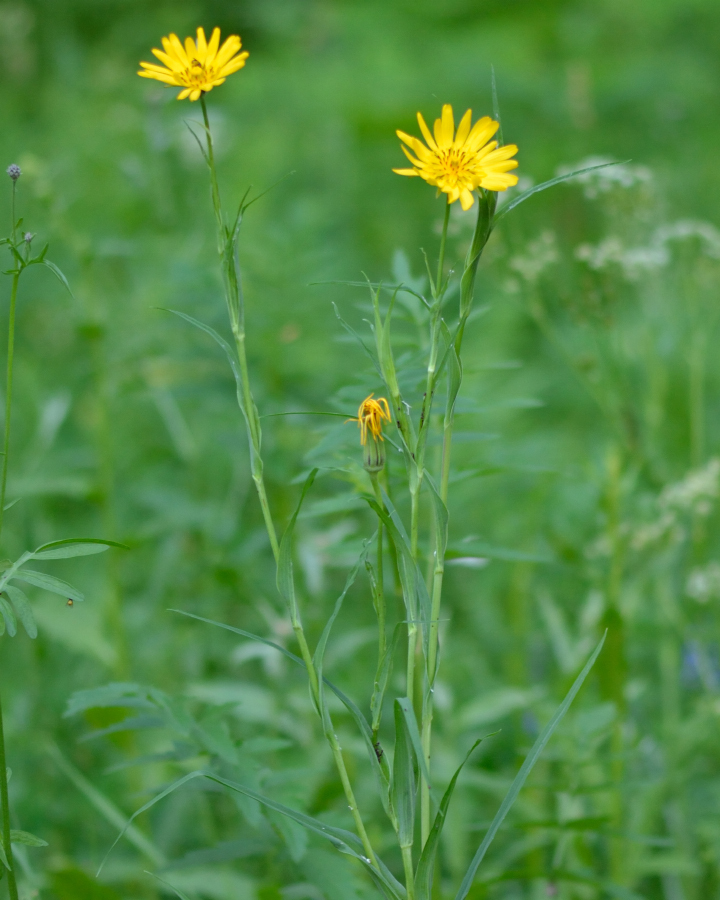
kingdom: Plantae
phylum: Tracheophyta
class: Magnoliopsida
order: Asterales
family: Asteraceae
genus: Tragopogon
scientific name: Tragopogon orientalis
